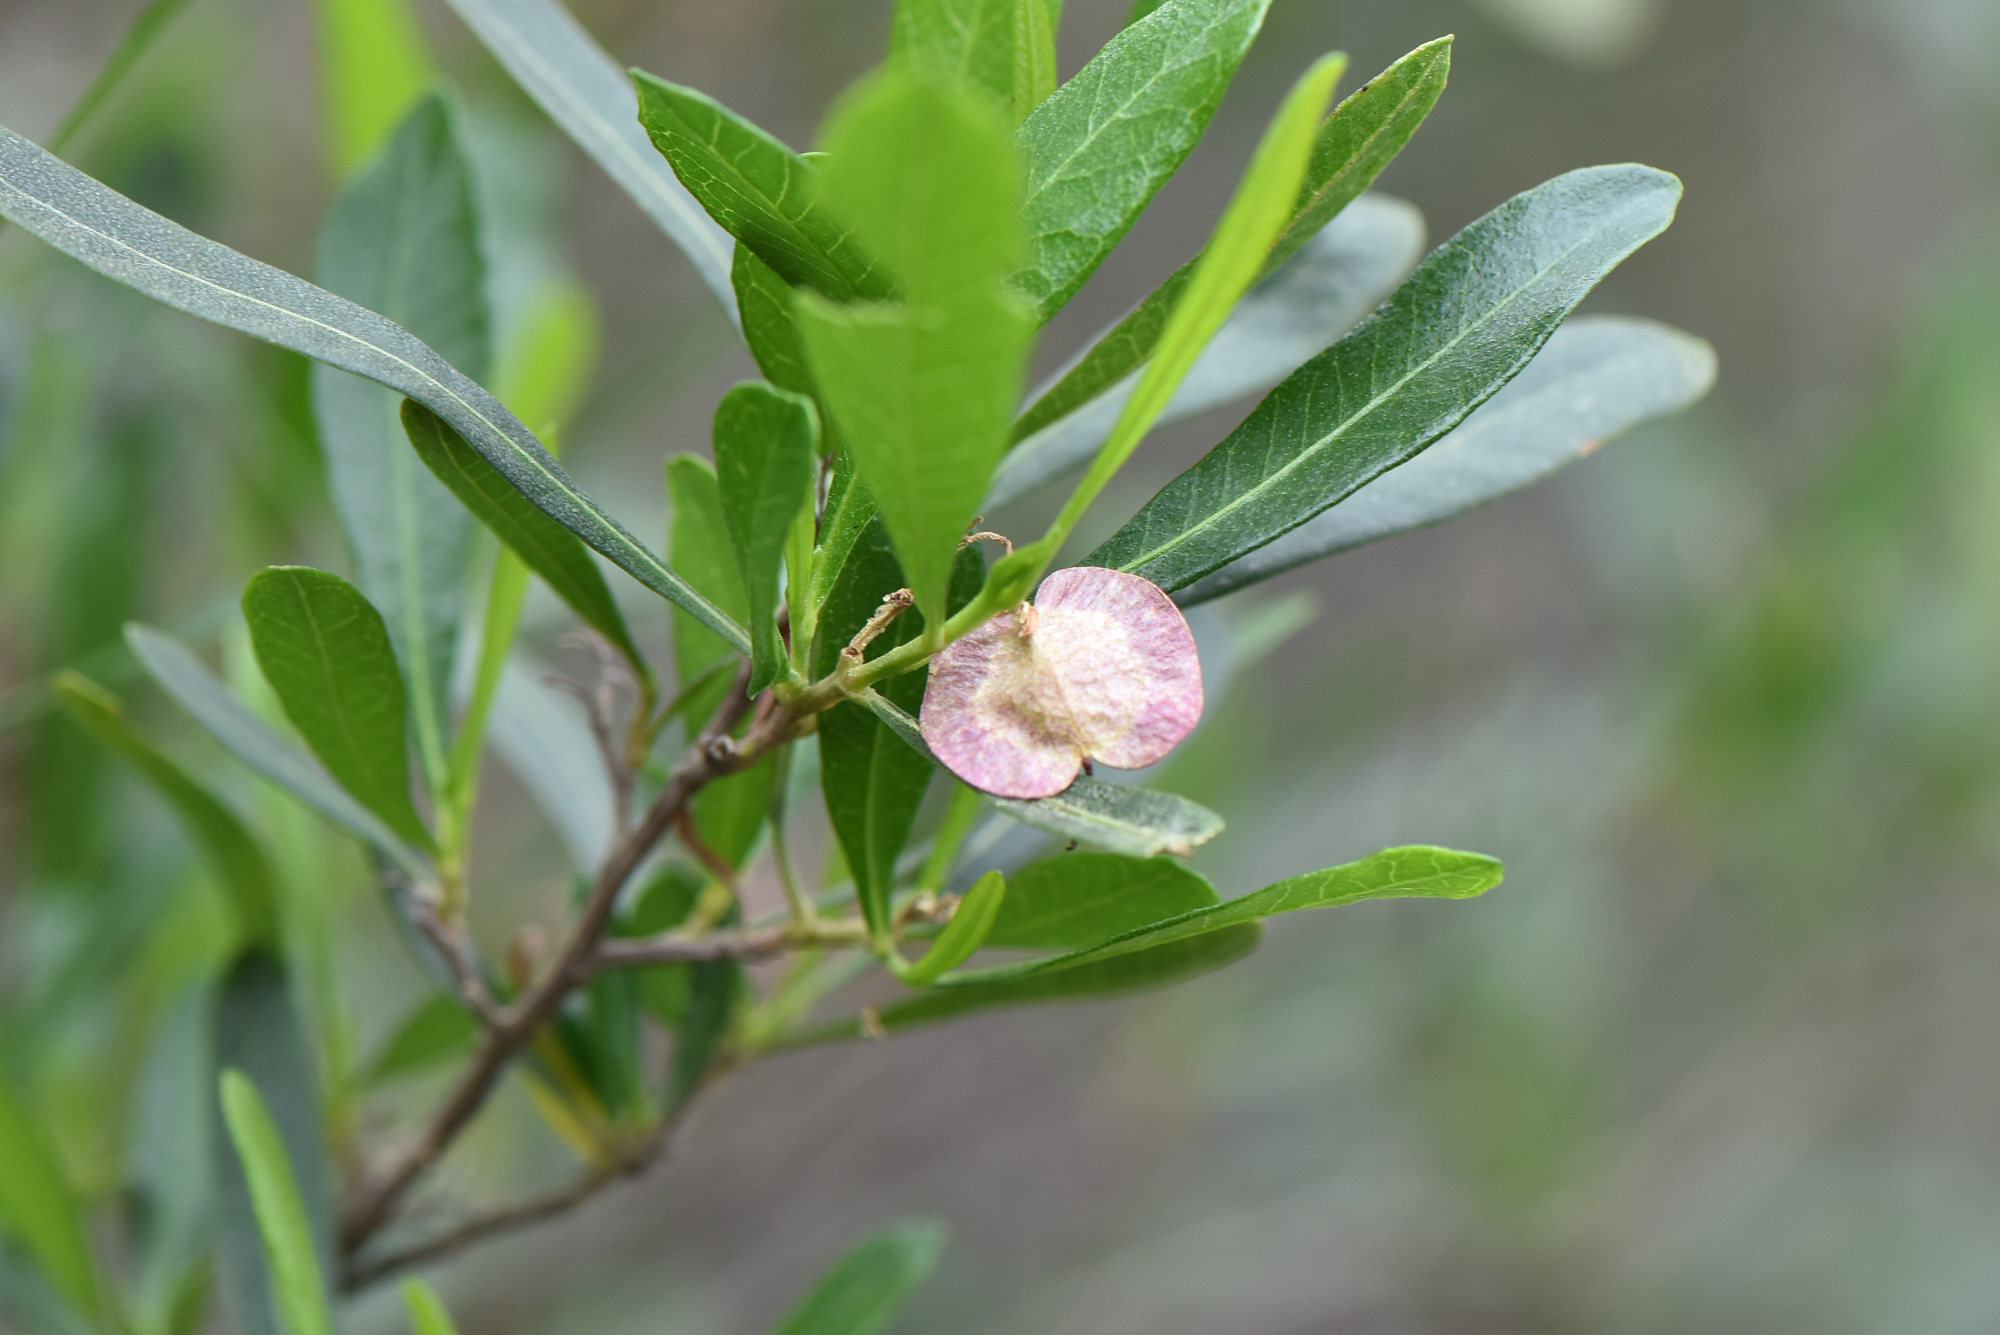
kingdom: Plantae
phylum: Tracheophyta
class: Magnoliopsida
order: Sapindales
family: Sapindaceae
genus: Dodonaea
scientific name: Dodonaea viscosa
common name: Hopbush
